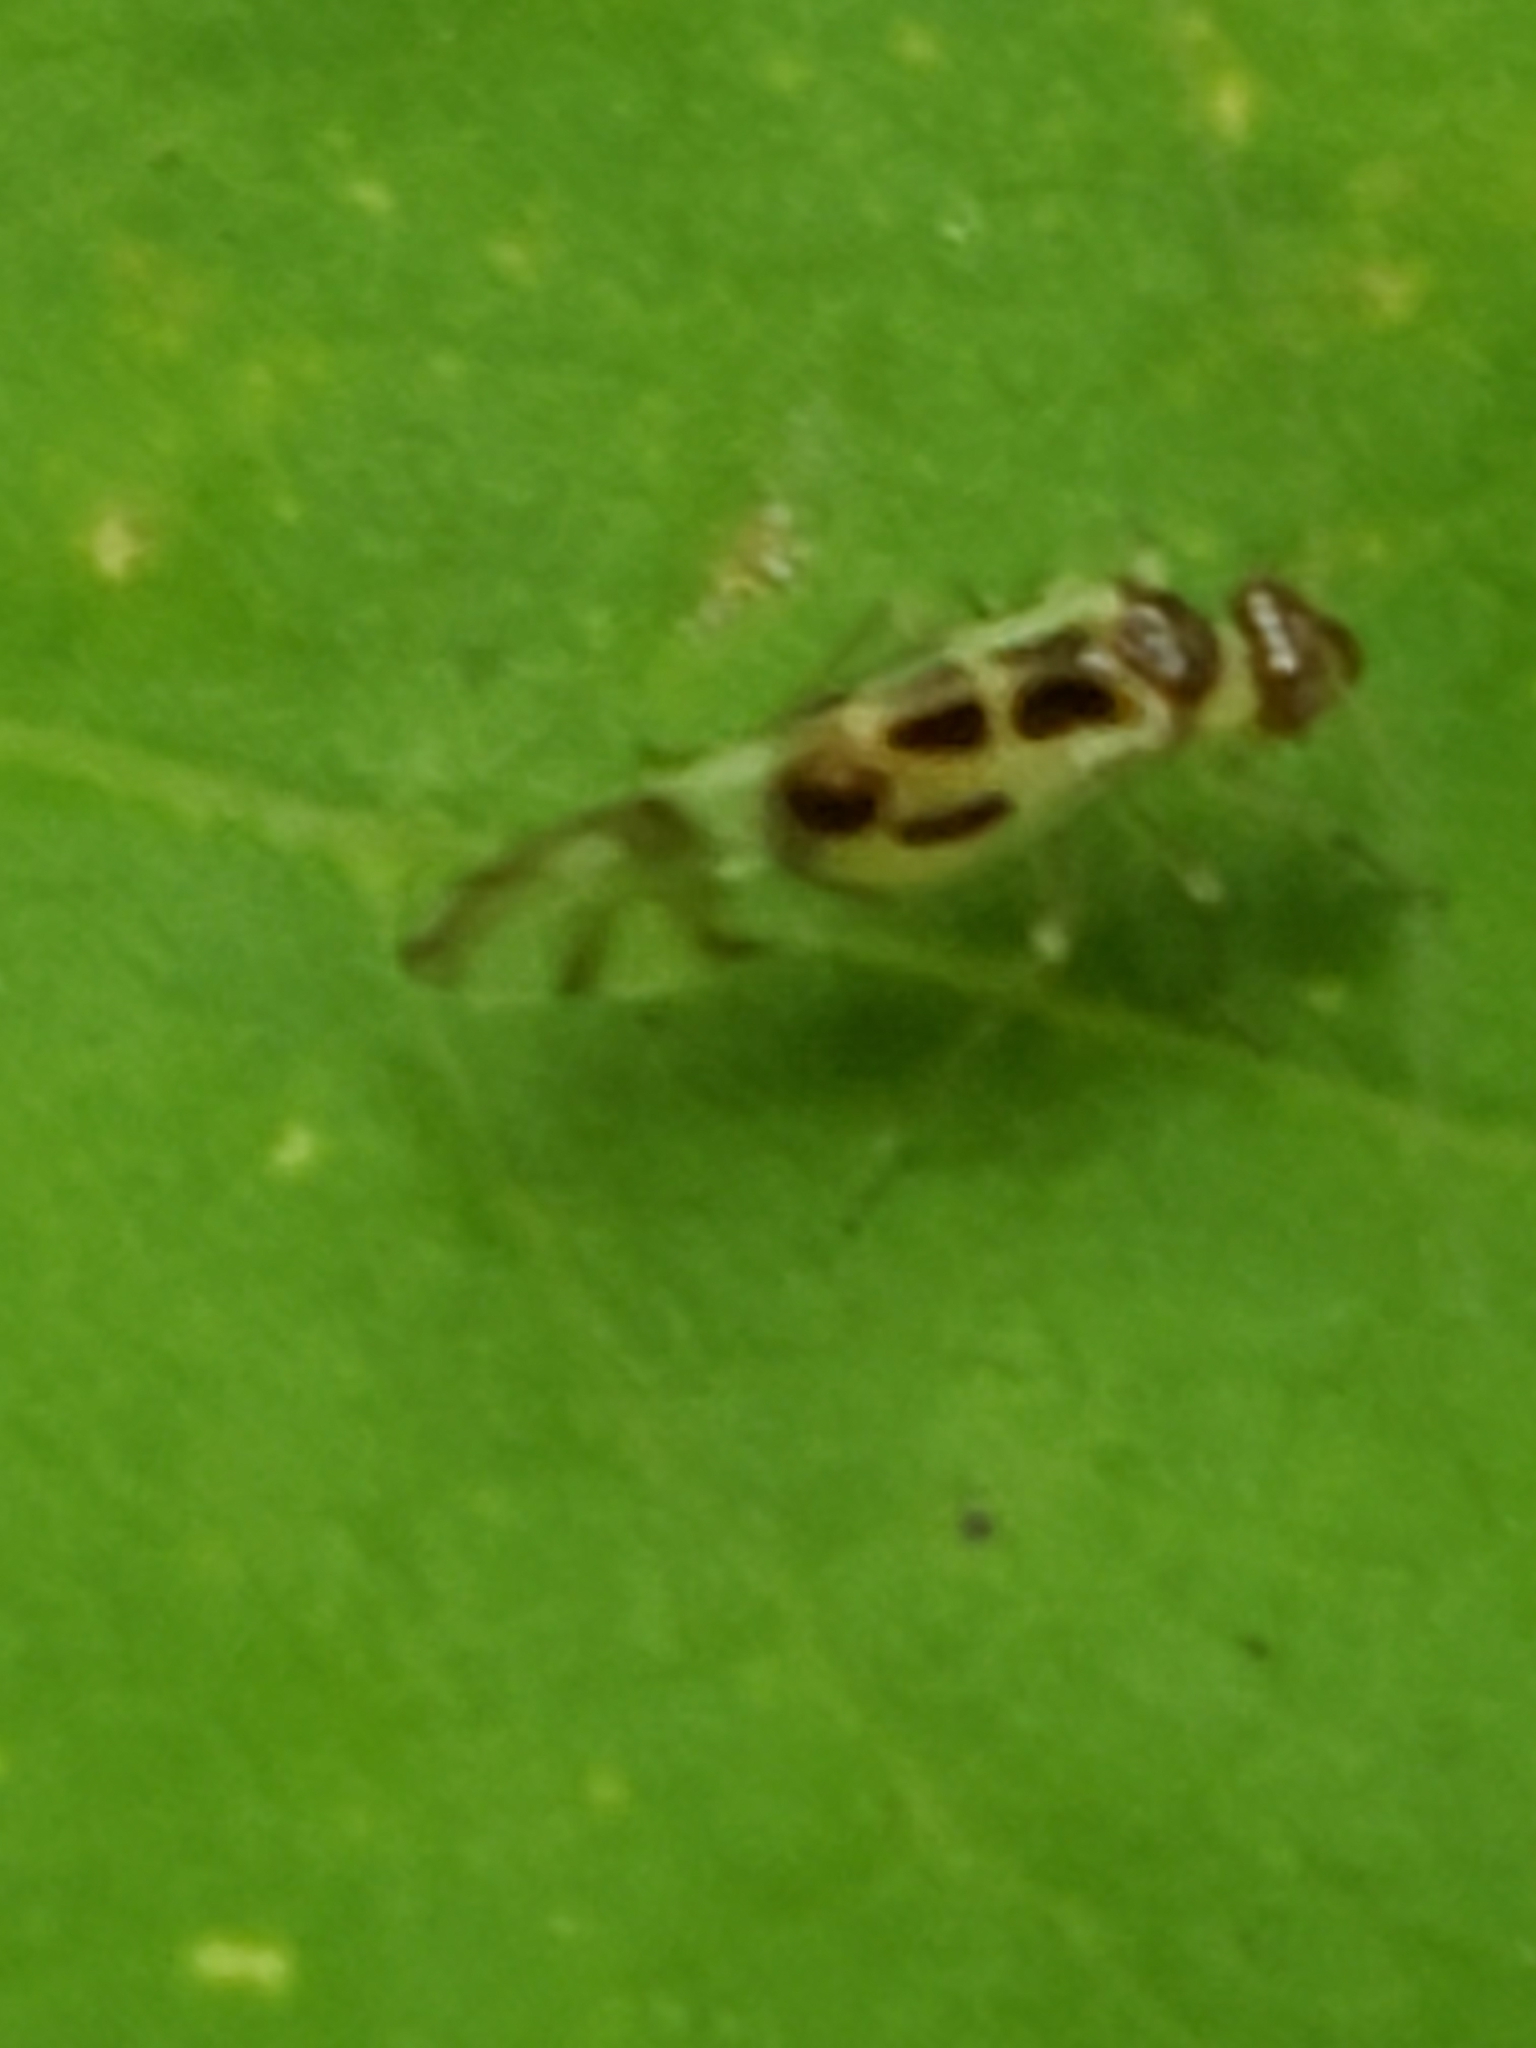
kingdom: Animalia
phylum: Arthropoda
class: Insecta
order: Psocodea
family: Stenopsocidae
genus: Graphopsocus
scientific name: Graphopsocus cruciatus
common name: Lizard bark louse
